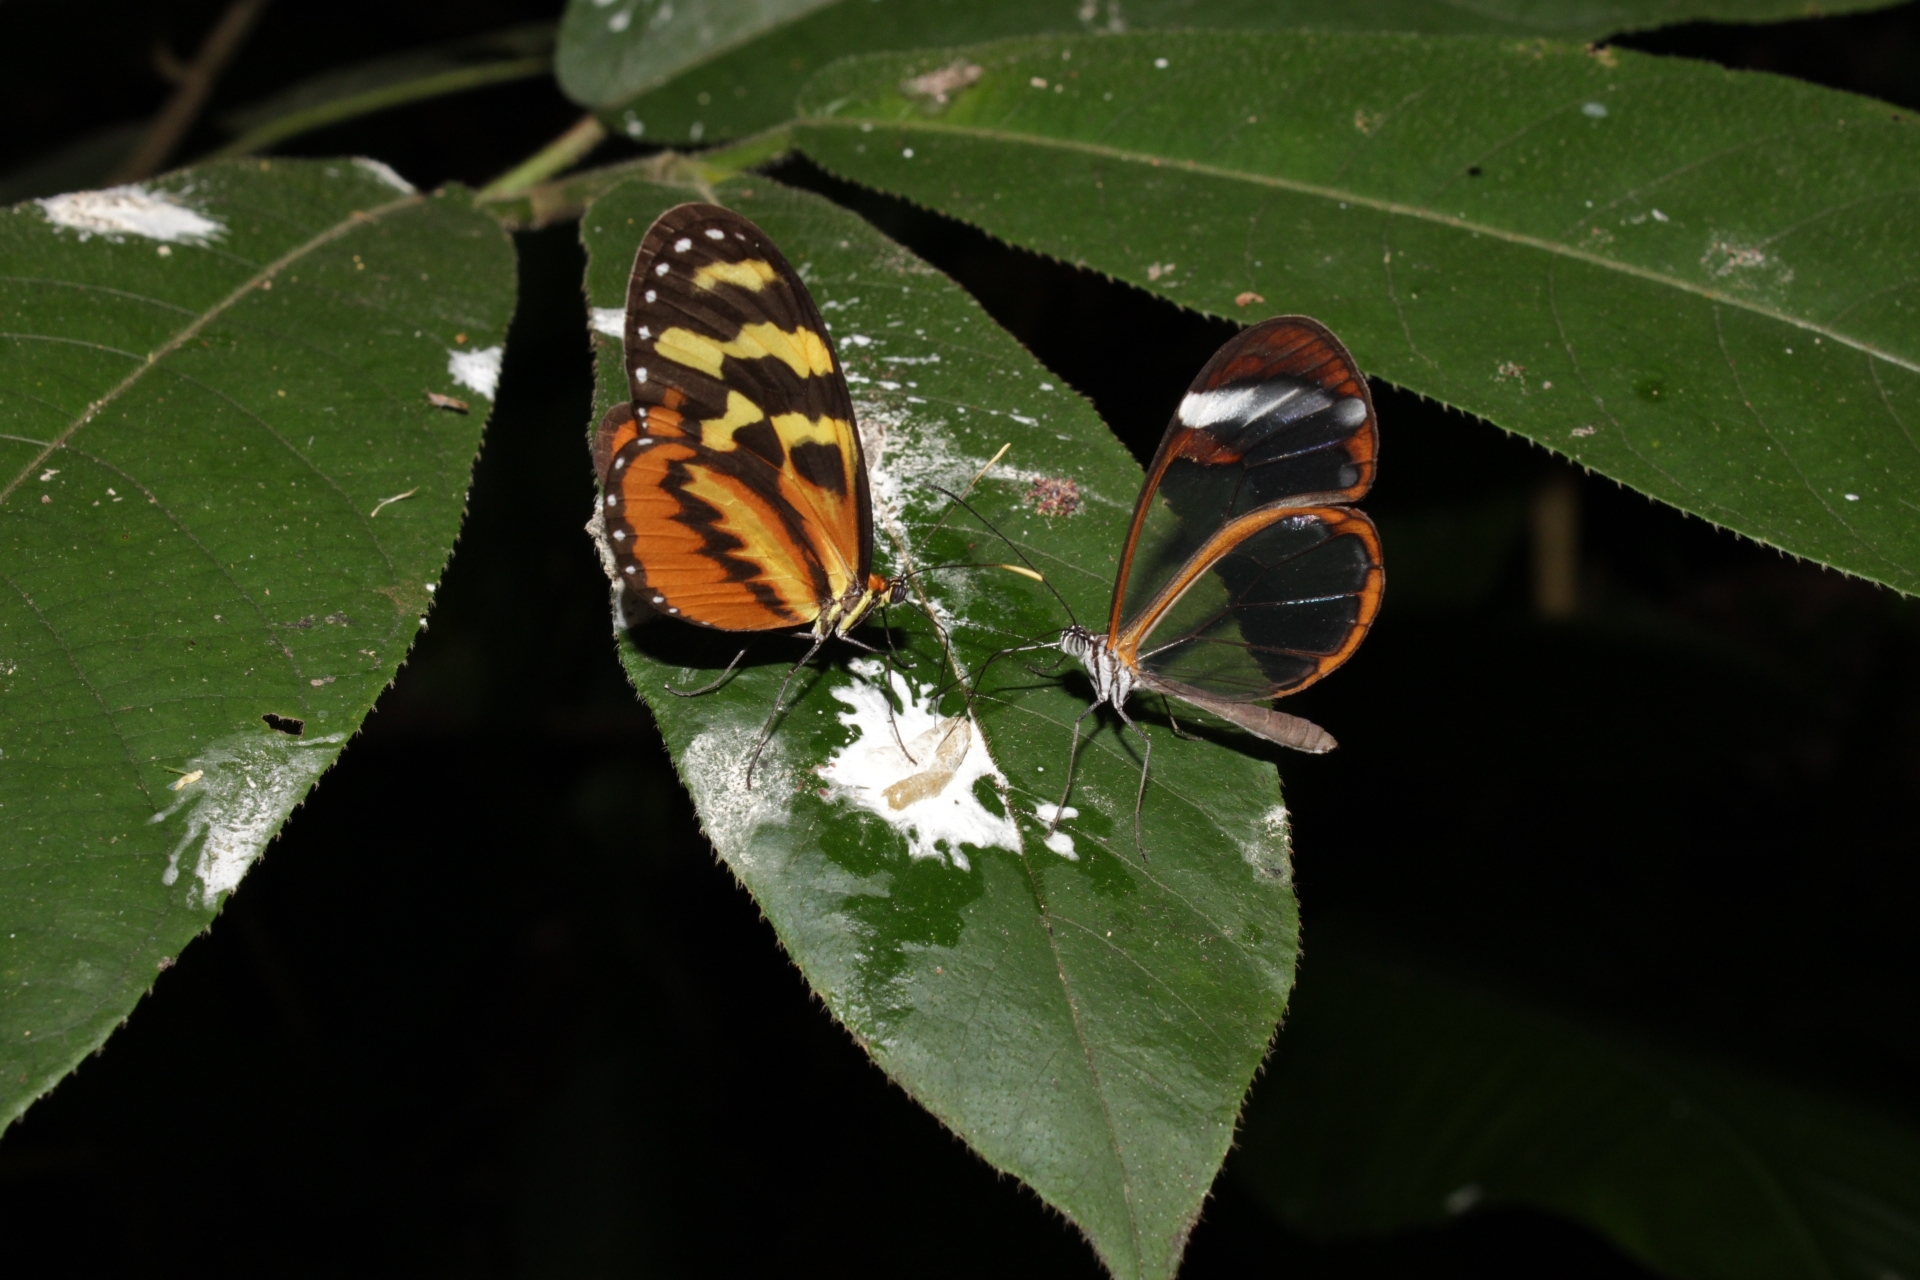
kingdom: Animalia
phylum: Arthropoda
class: Insecta
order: Lepidoptera
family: Nymphalidae
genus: Greta
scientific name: Greta morgane
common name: Thick-tipped greta
